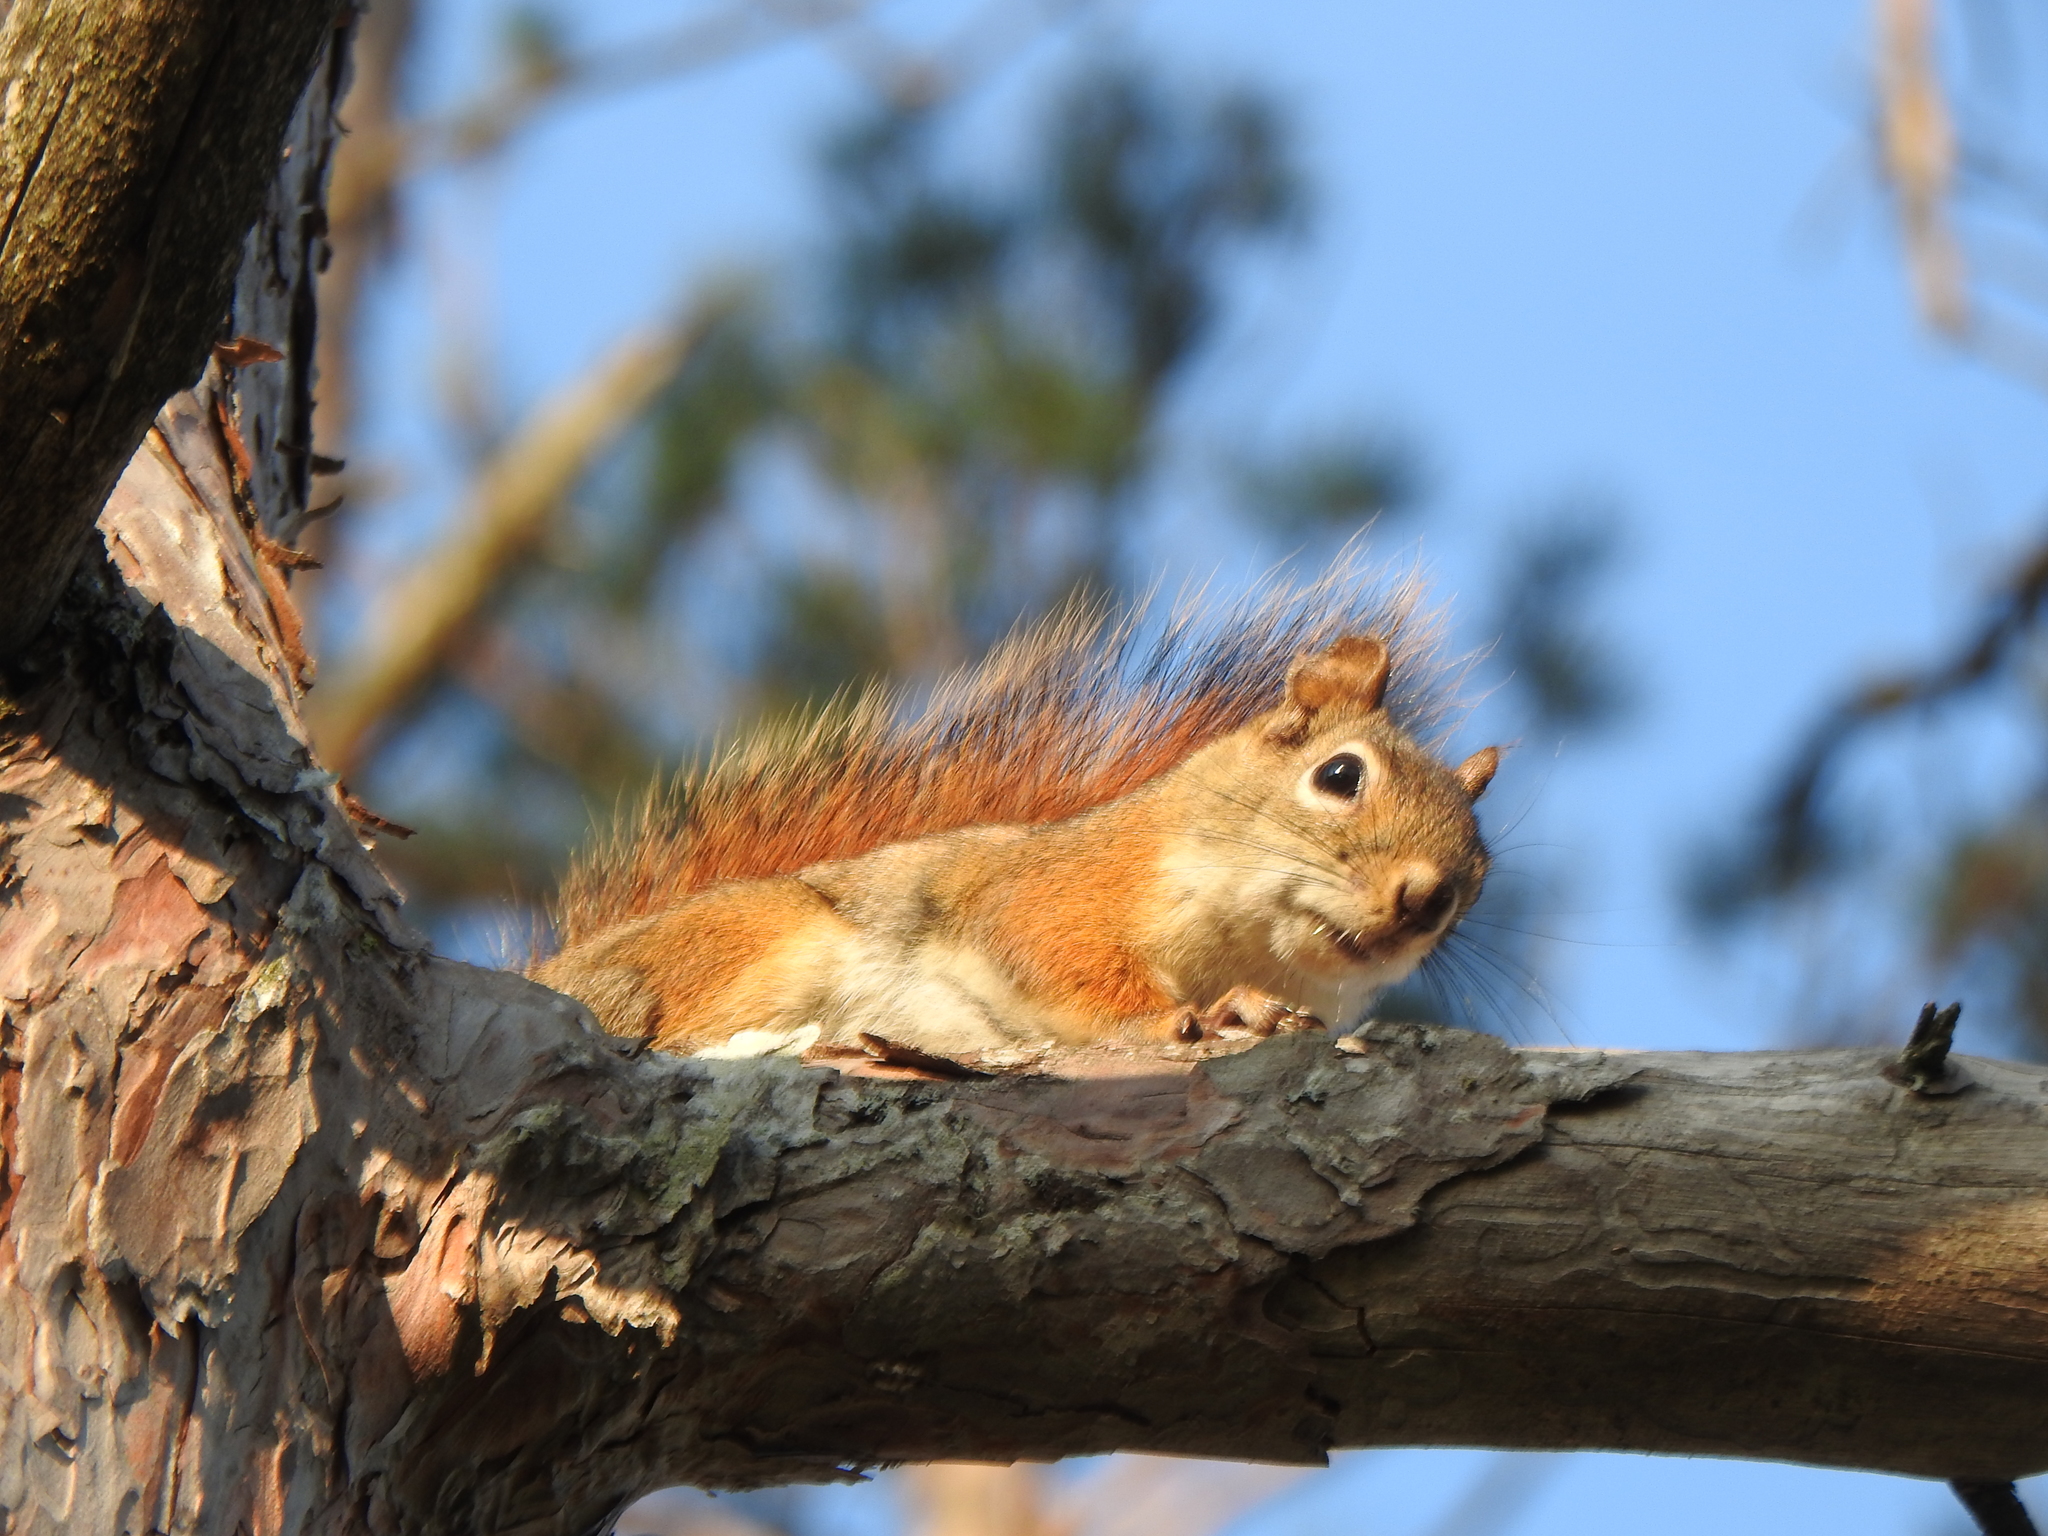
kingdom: Animalia
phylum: Chordata
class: Mammalia
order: Rodentia
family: Sciuridae
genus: Tamiasciurus
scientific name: Tamiasciurus hudsonicus
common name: Red squirrel
